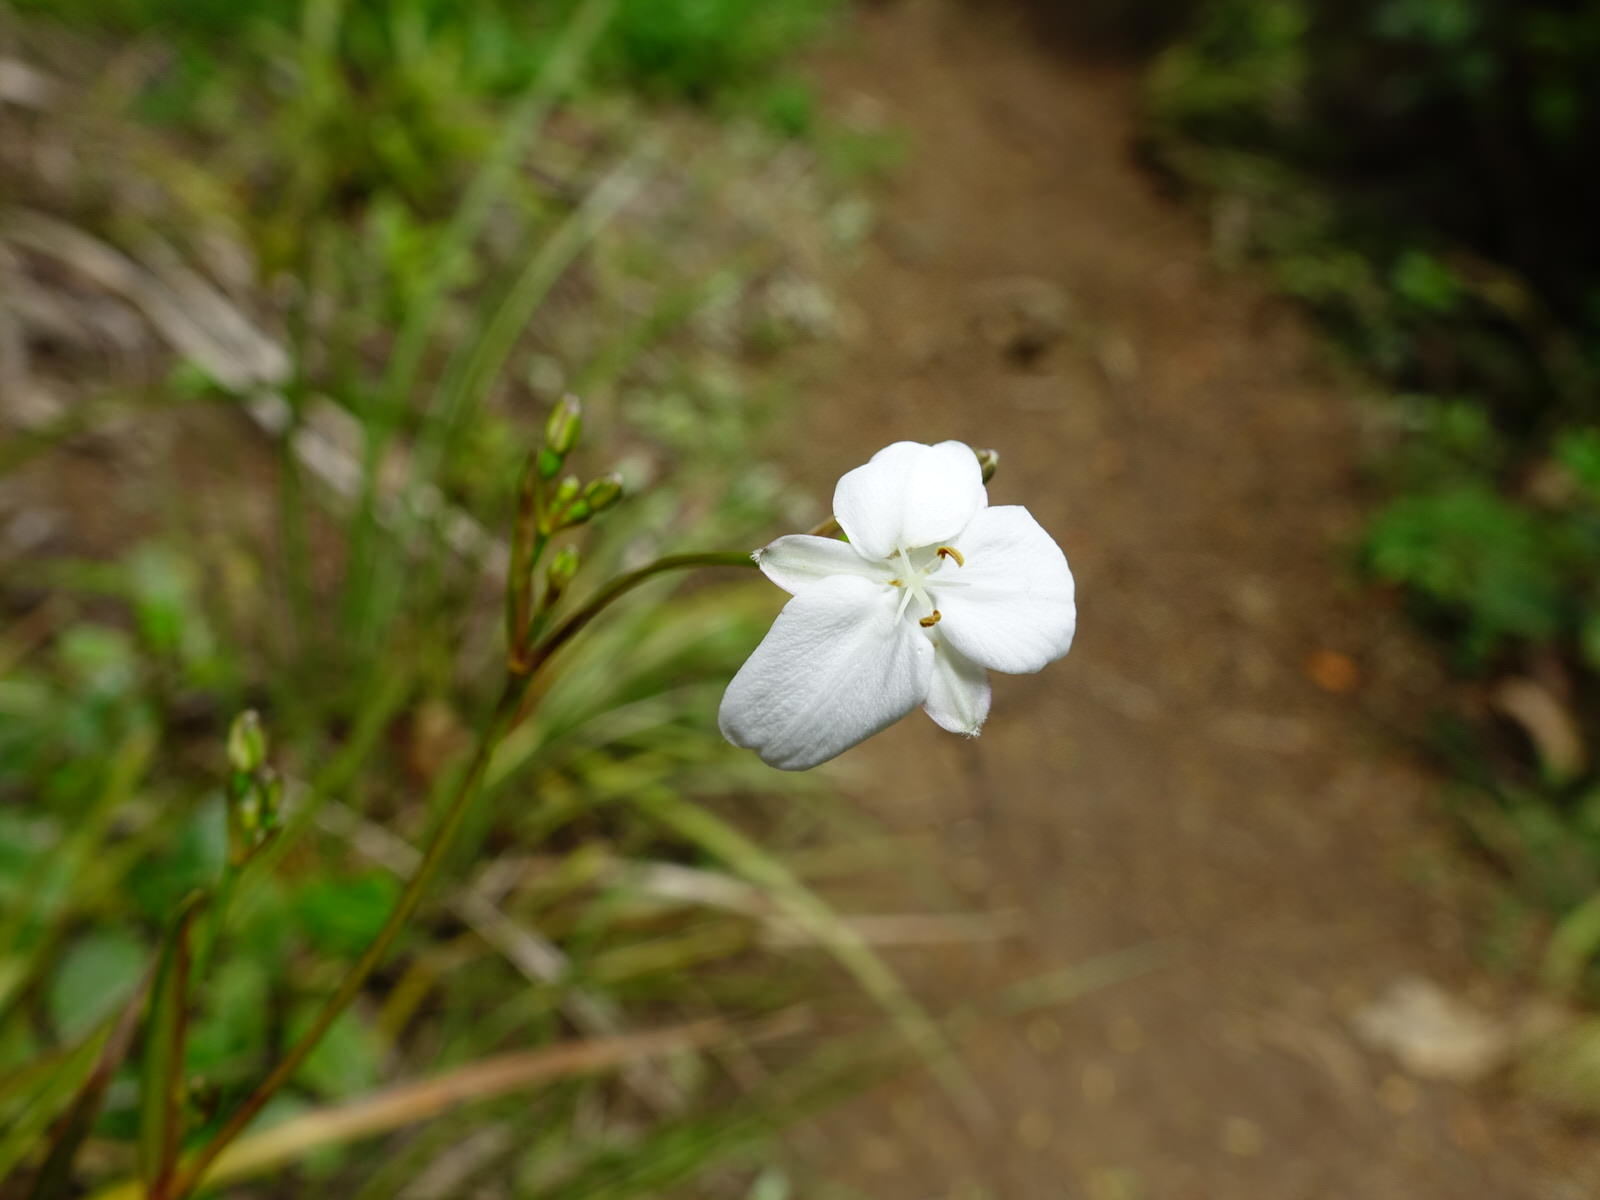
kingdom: Plantae
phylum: Tracheophyta
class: Liliopsida
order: Asparagales
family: Iridaceae
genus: Libertia
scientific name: Libertia grandiflora
